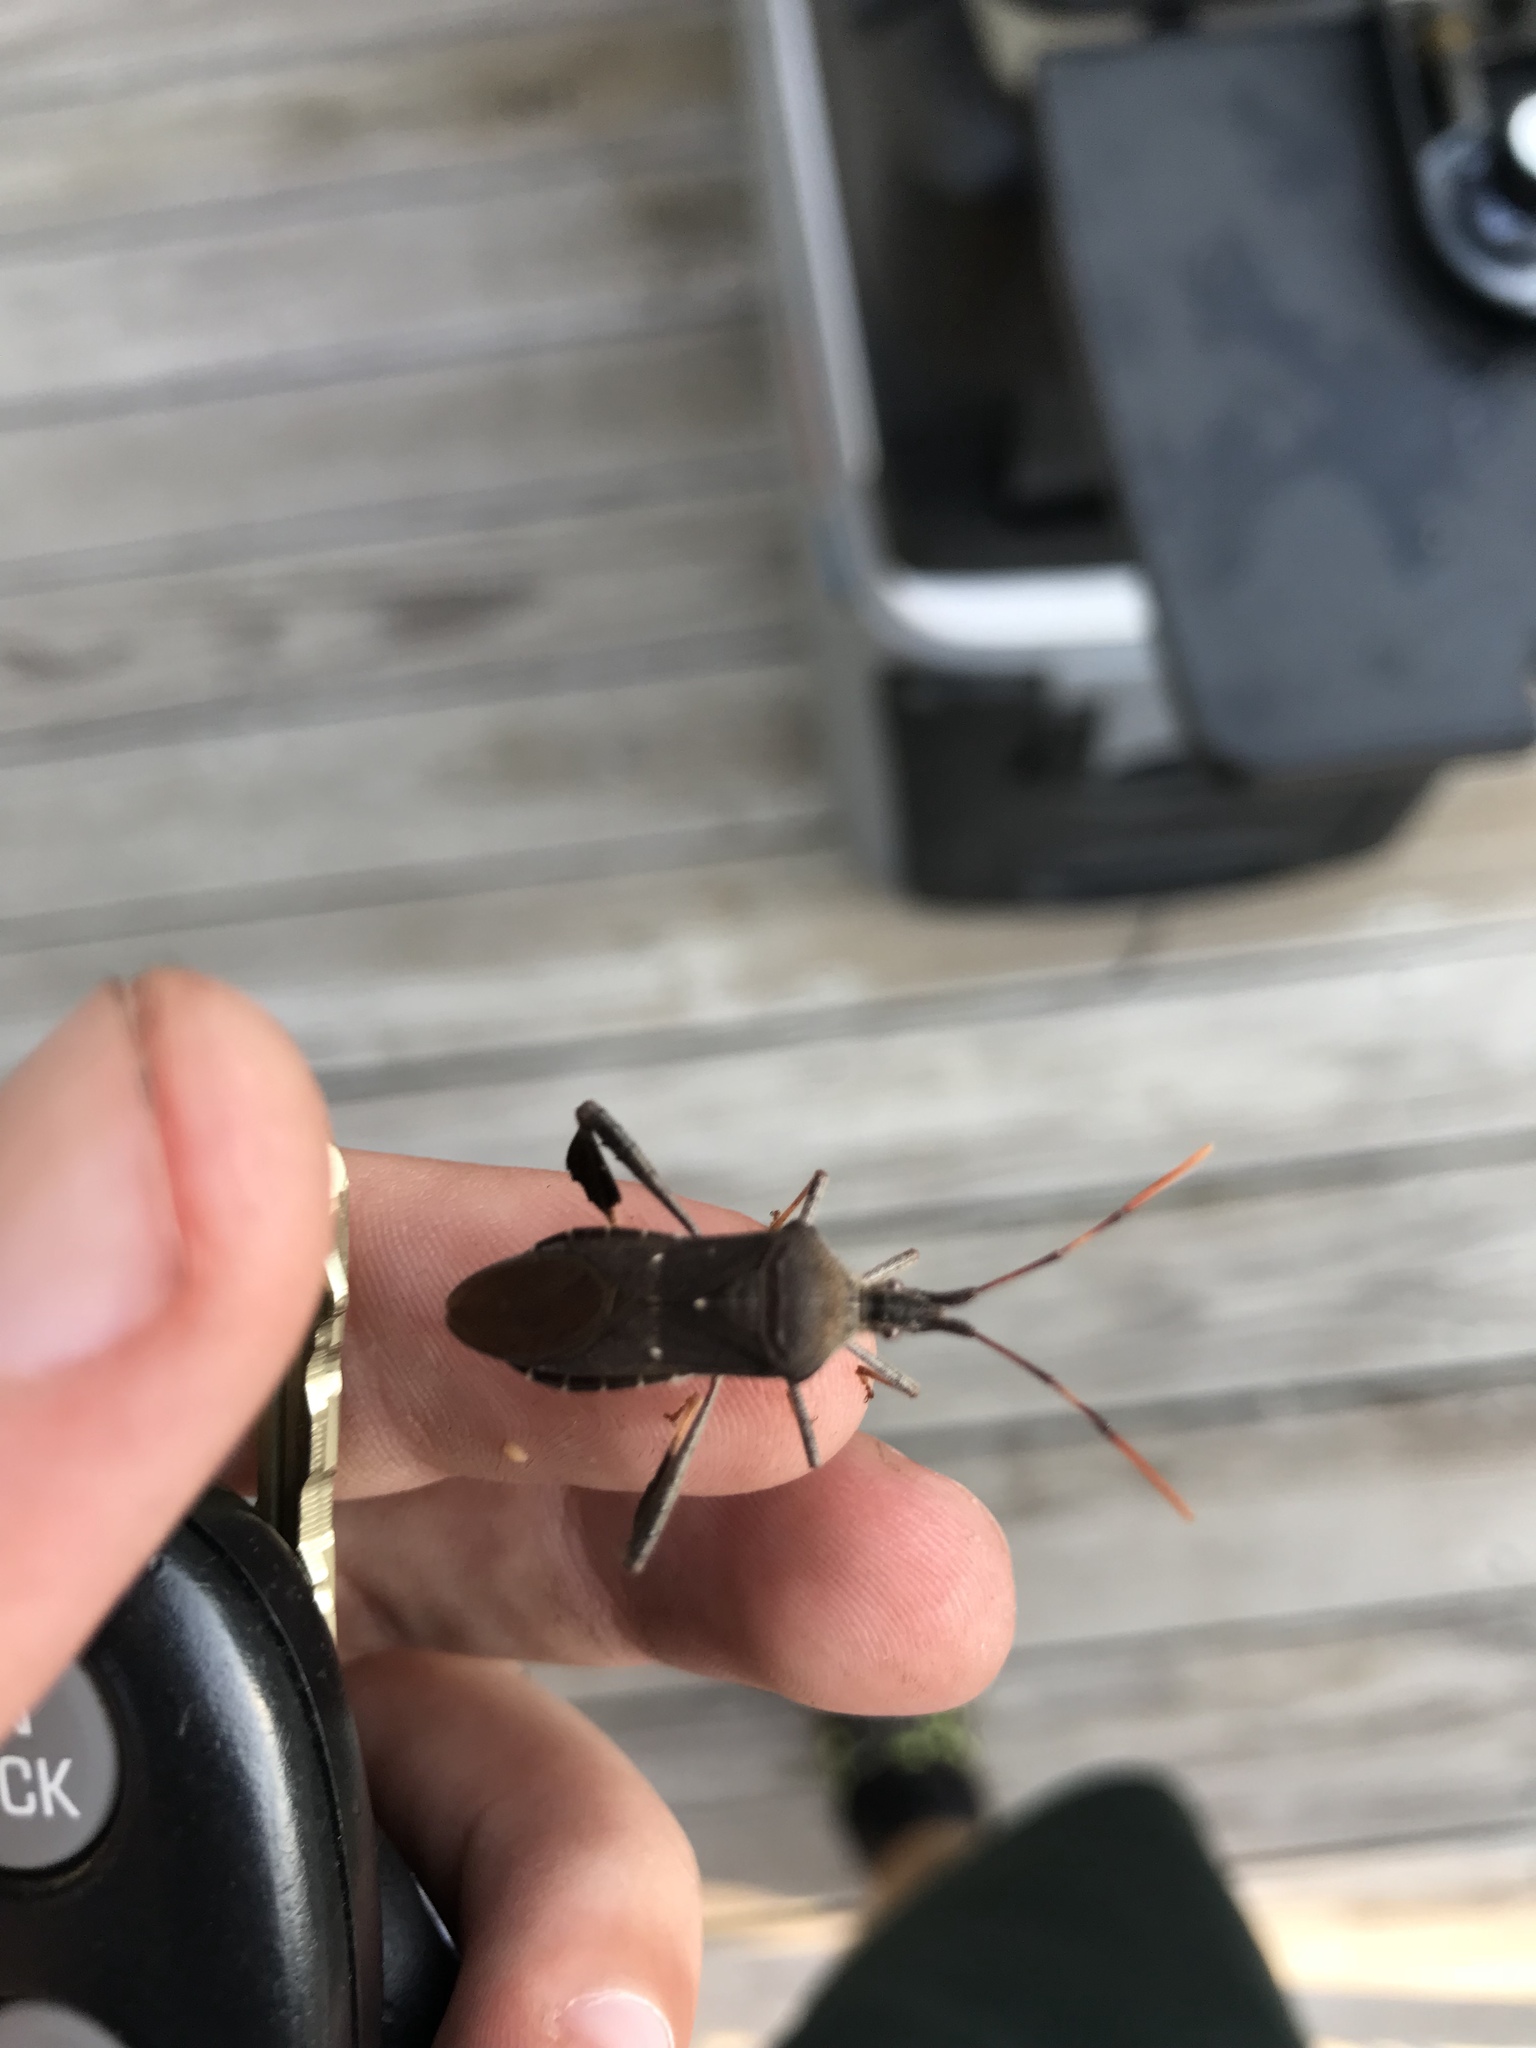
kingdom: Animalia
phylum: Arthropoda
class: Insecta
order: Hemiptera
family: Coreidae
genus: Leptoglossus
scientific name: Leptoglossus oppositus
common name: Northern leaf-footed bug
